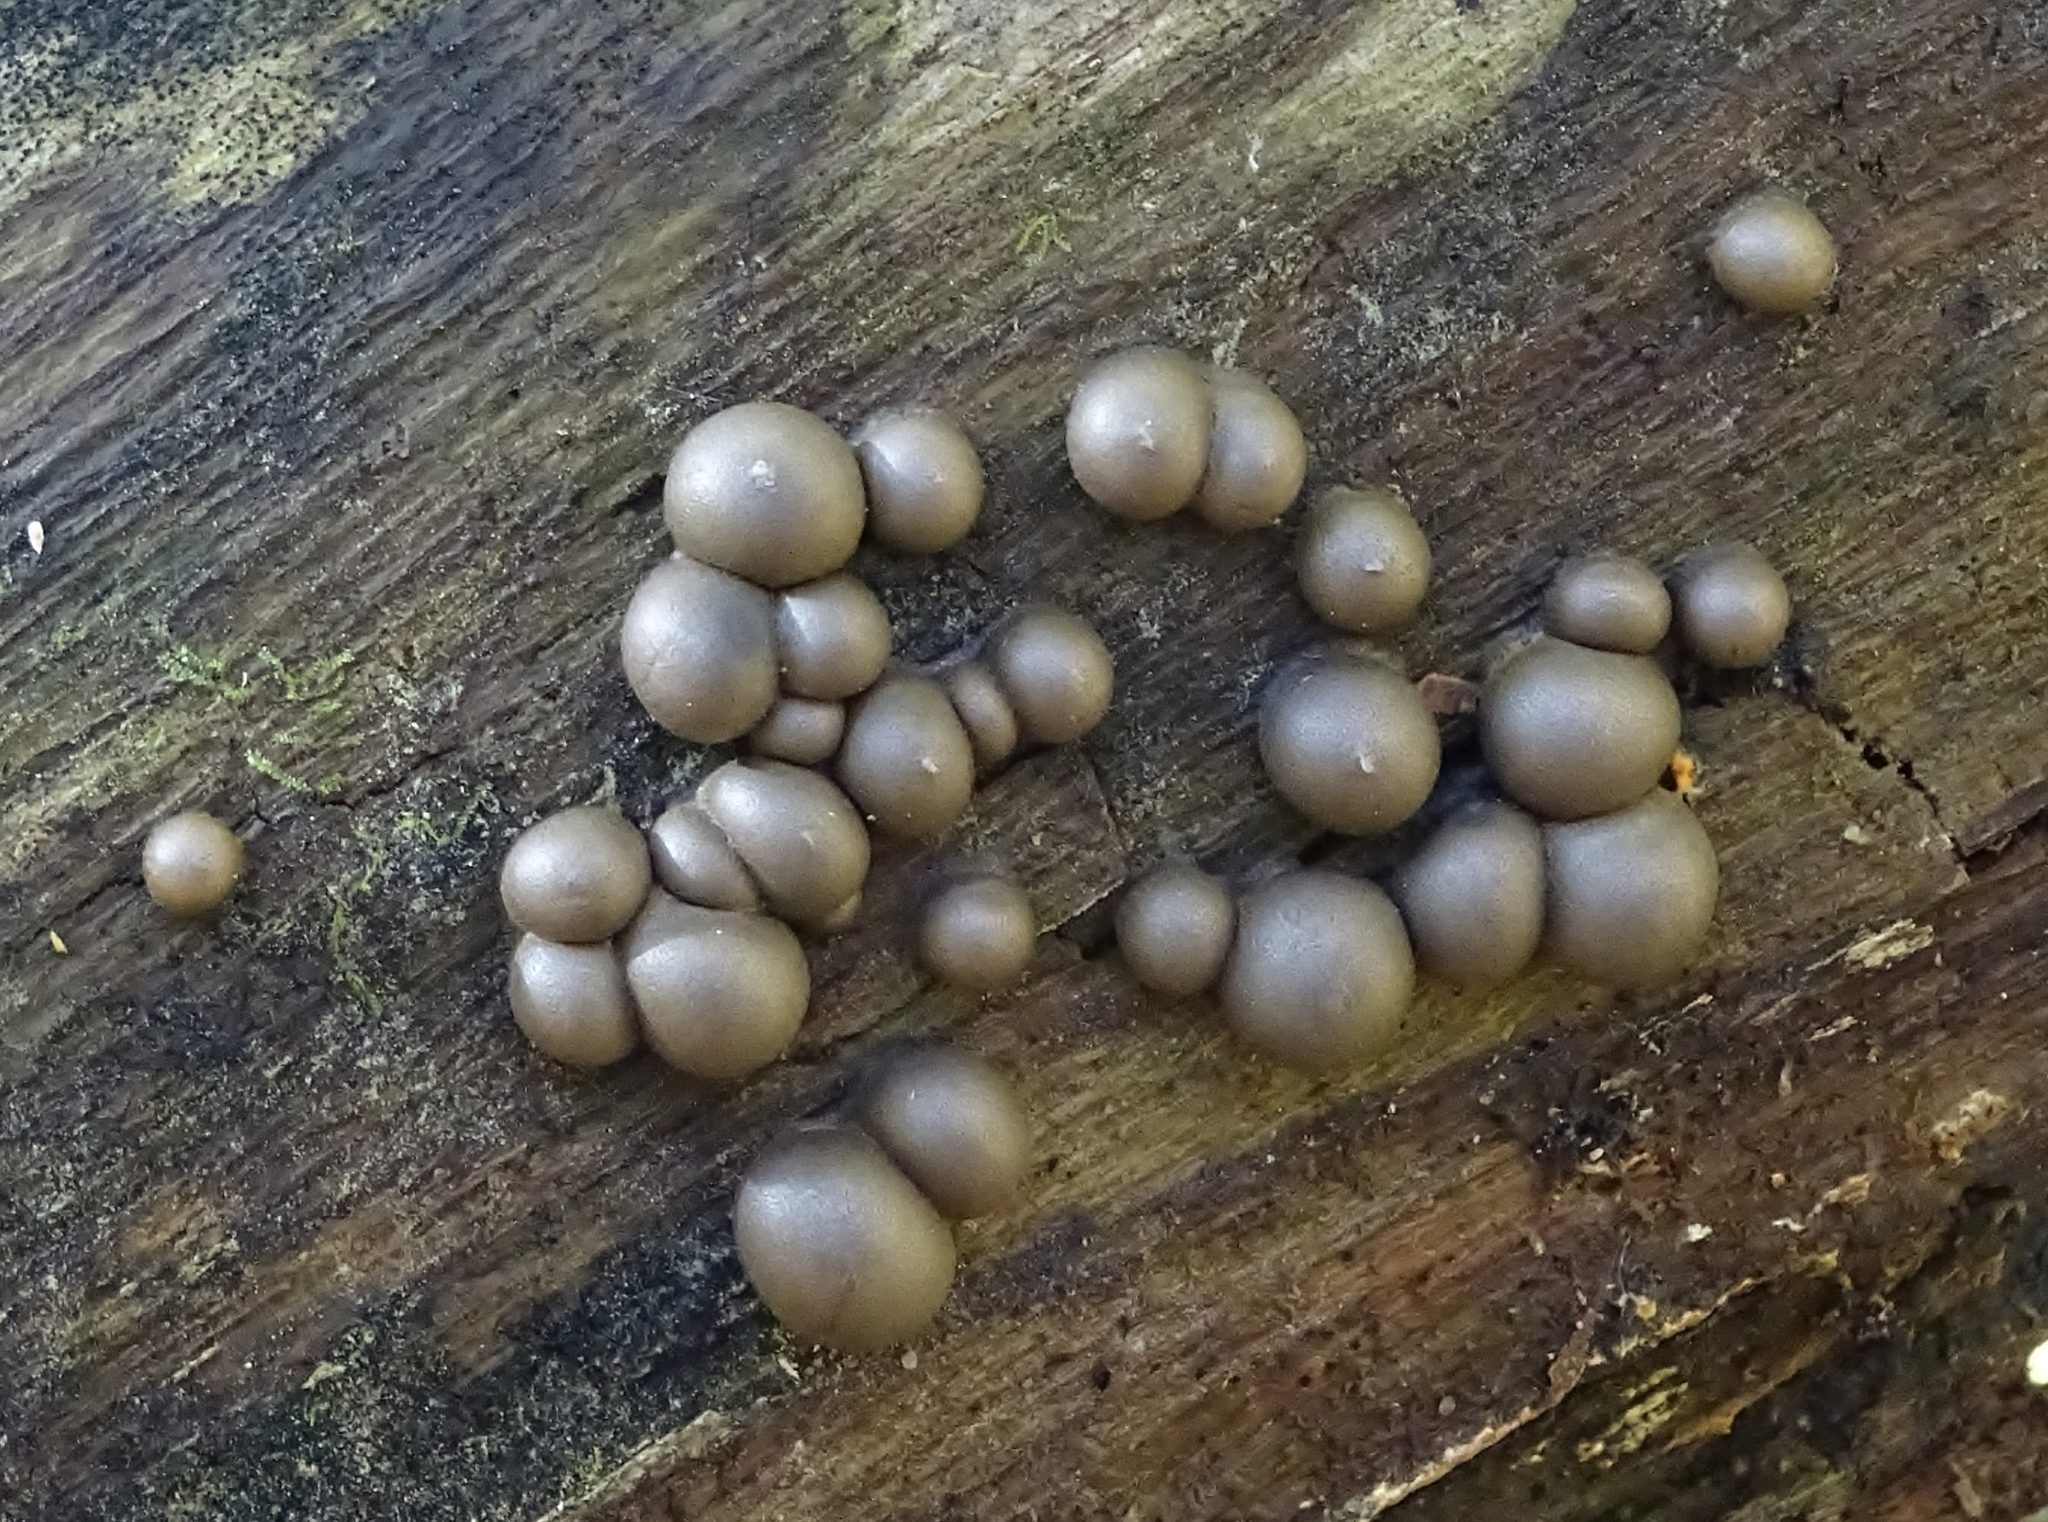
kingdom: Protozoa
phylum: Mycetozoa
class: Myxomycetes
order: Cribrariales
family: Tubiferaceae
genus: Lycogala
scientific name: Lycogala epidendrum
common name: Wolf's milk
